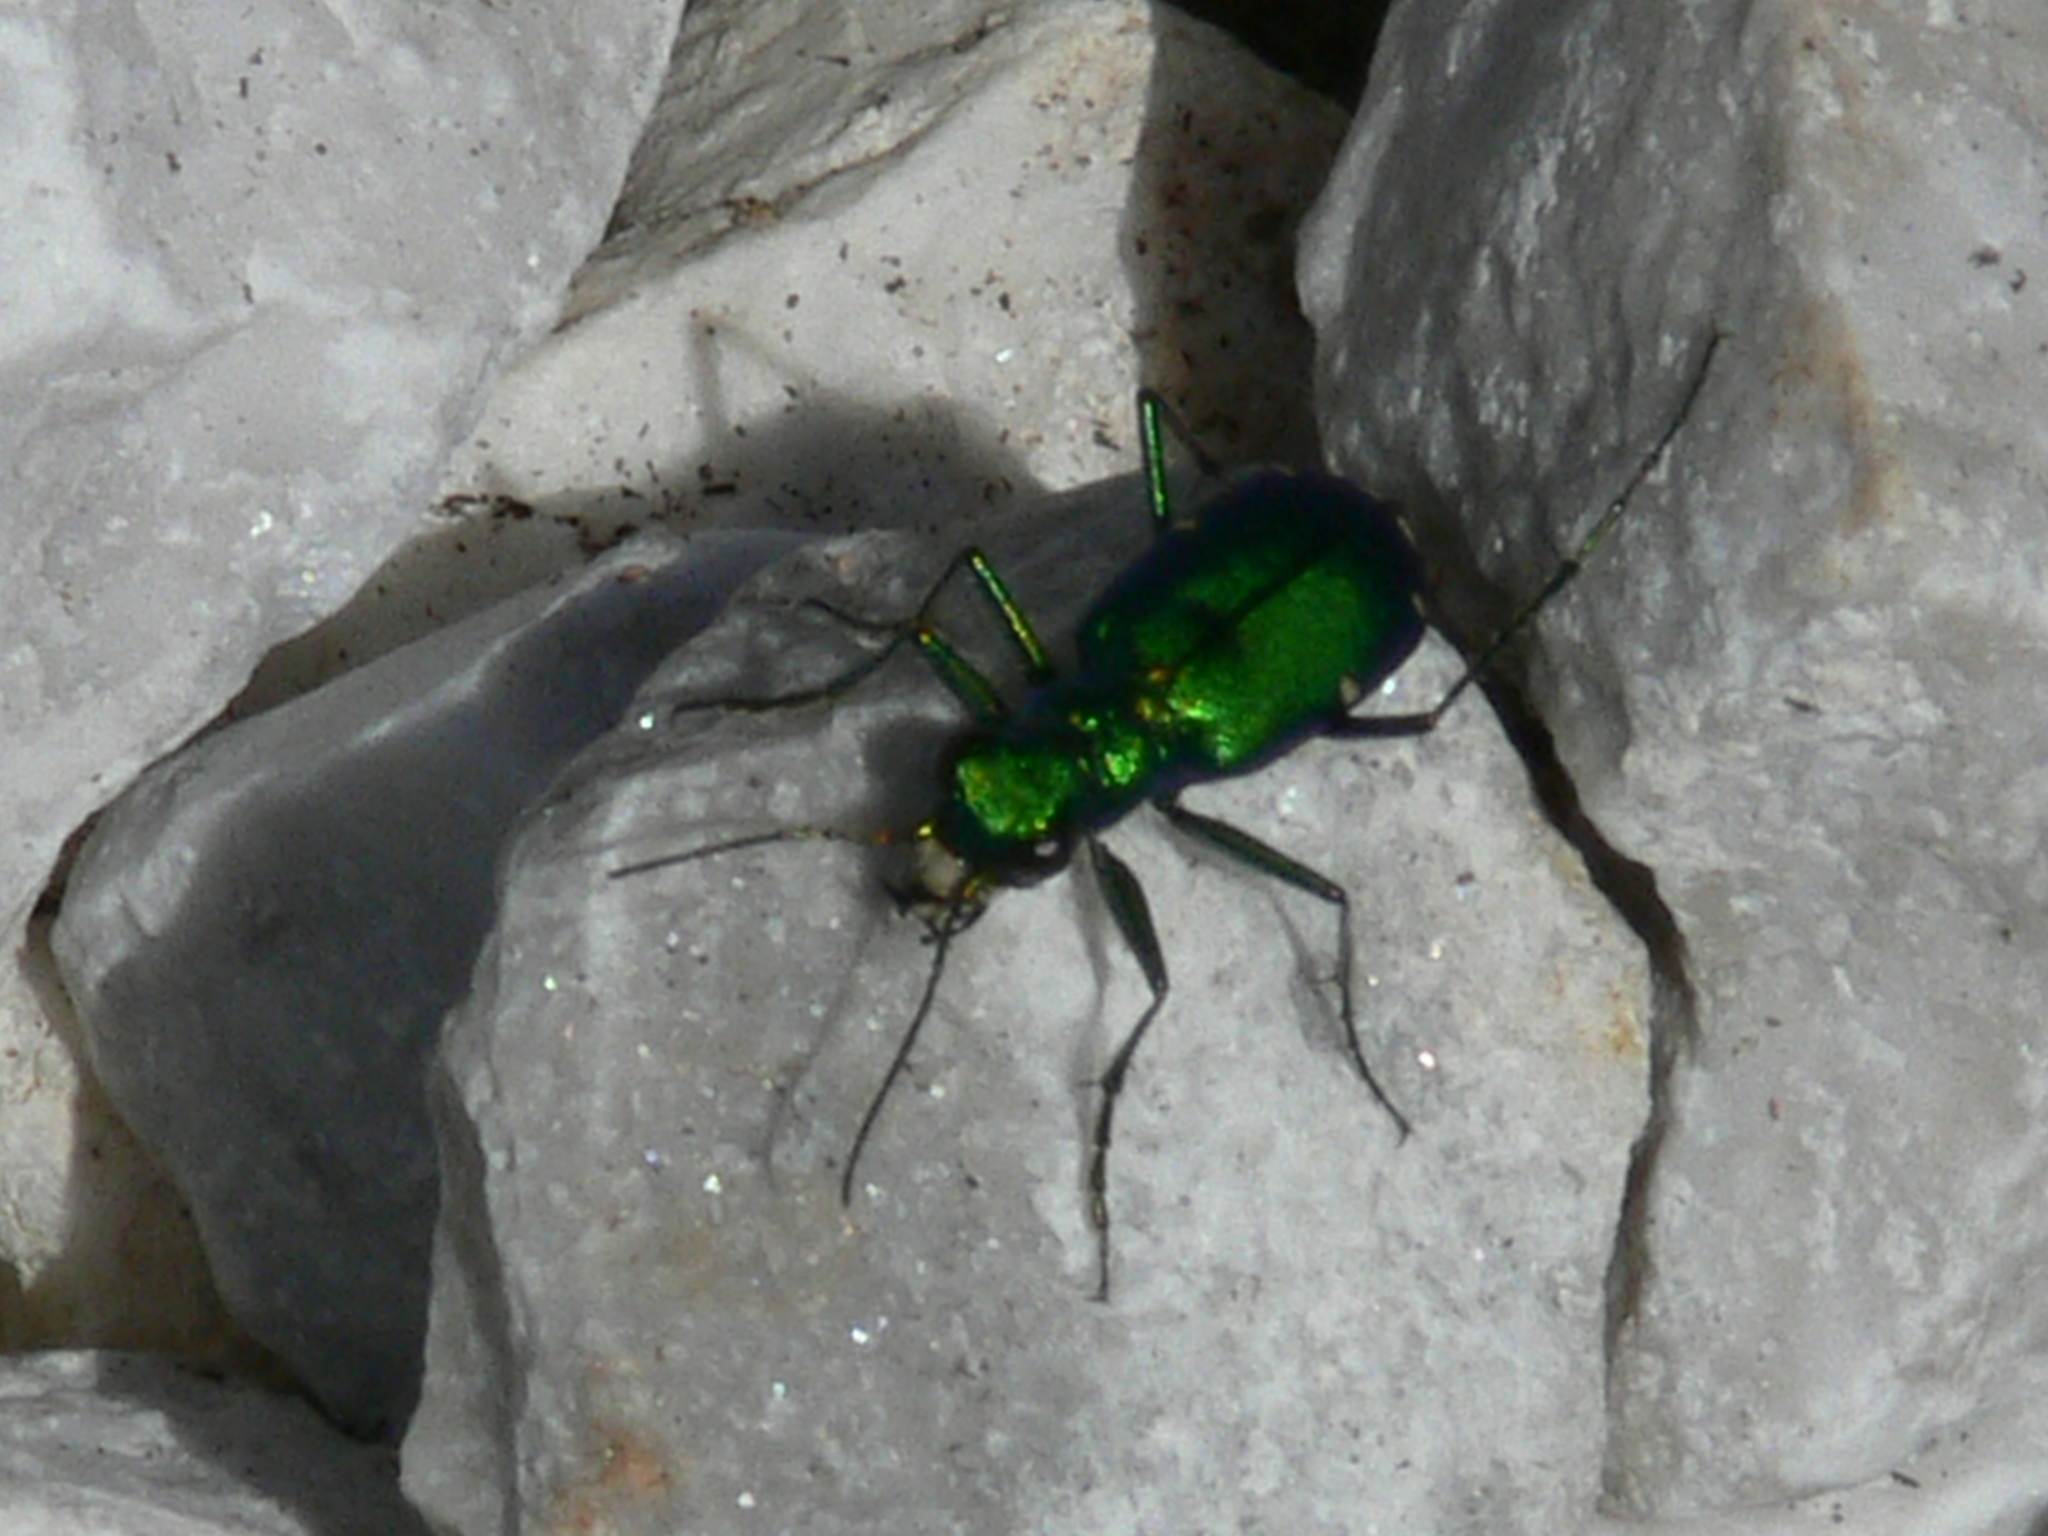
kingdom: Animalia
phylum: Arthropoda
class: Insecta
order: Coleoptera
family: Carabidae
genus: Cicindela
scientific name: Cicindela sexguttata
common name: Six-spotted tiger beetle
